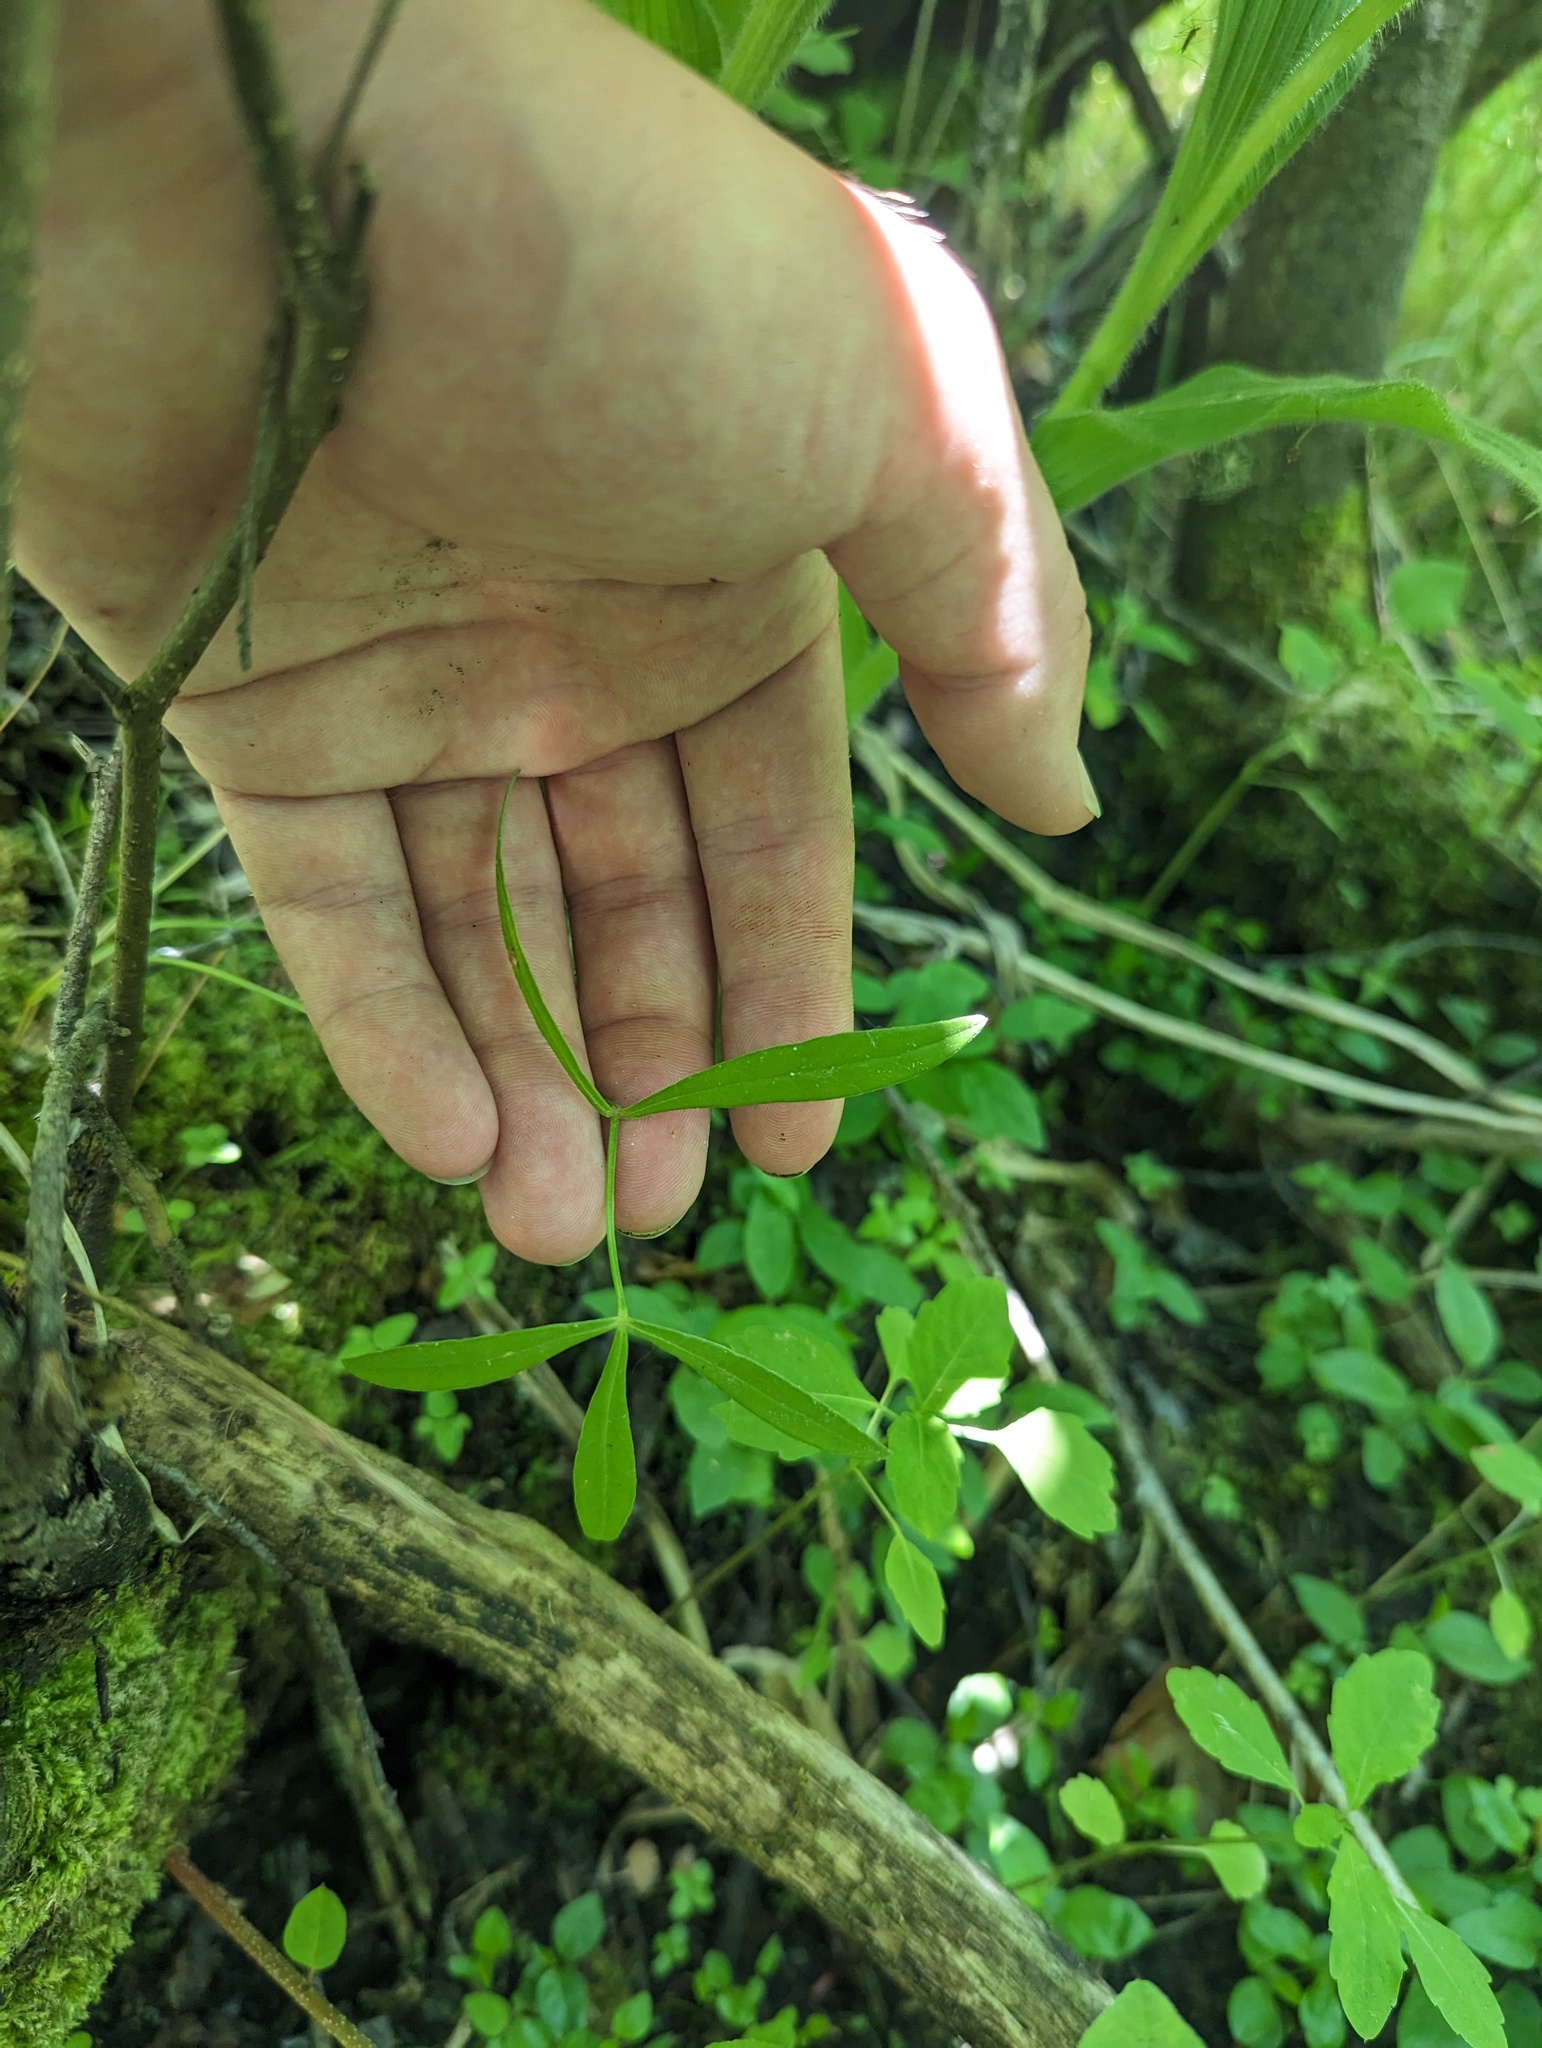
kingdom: Plantae
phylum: Tracheophyta
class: Magnoliopsida
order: Apiales
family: Apiaceae
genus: Oxypolis
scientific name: Oxypolis rigidior
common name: Cowbane
